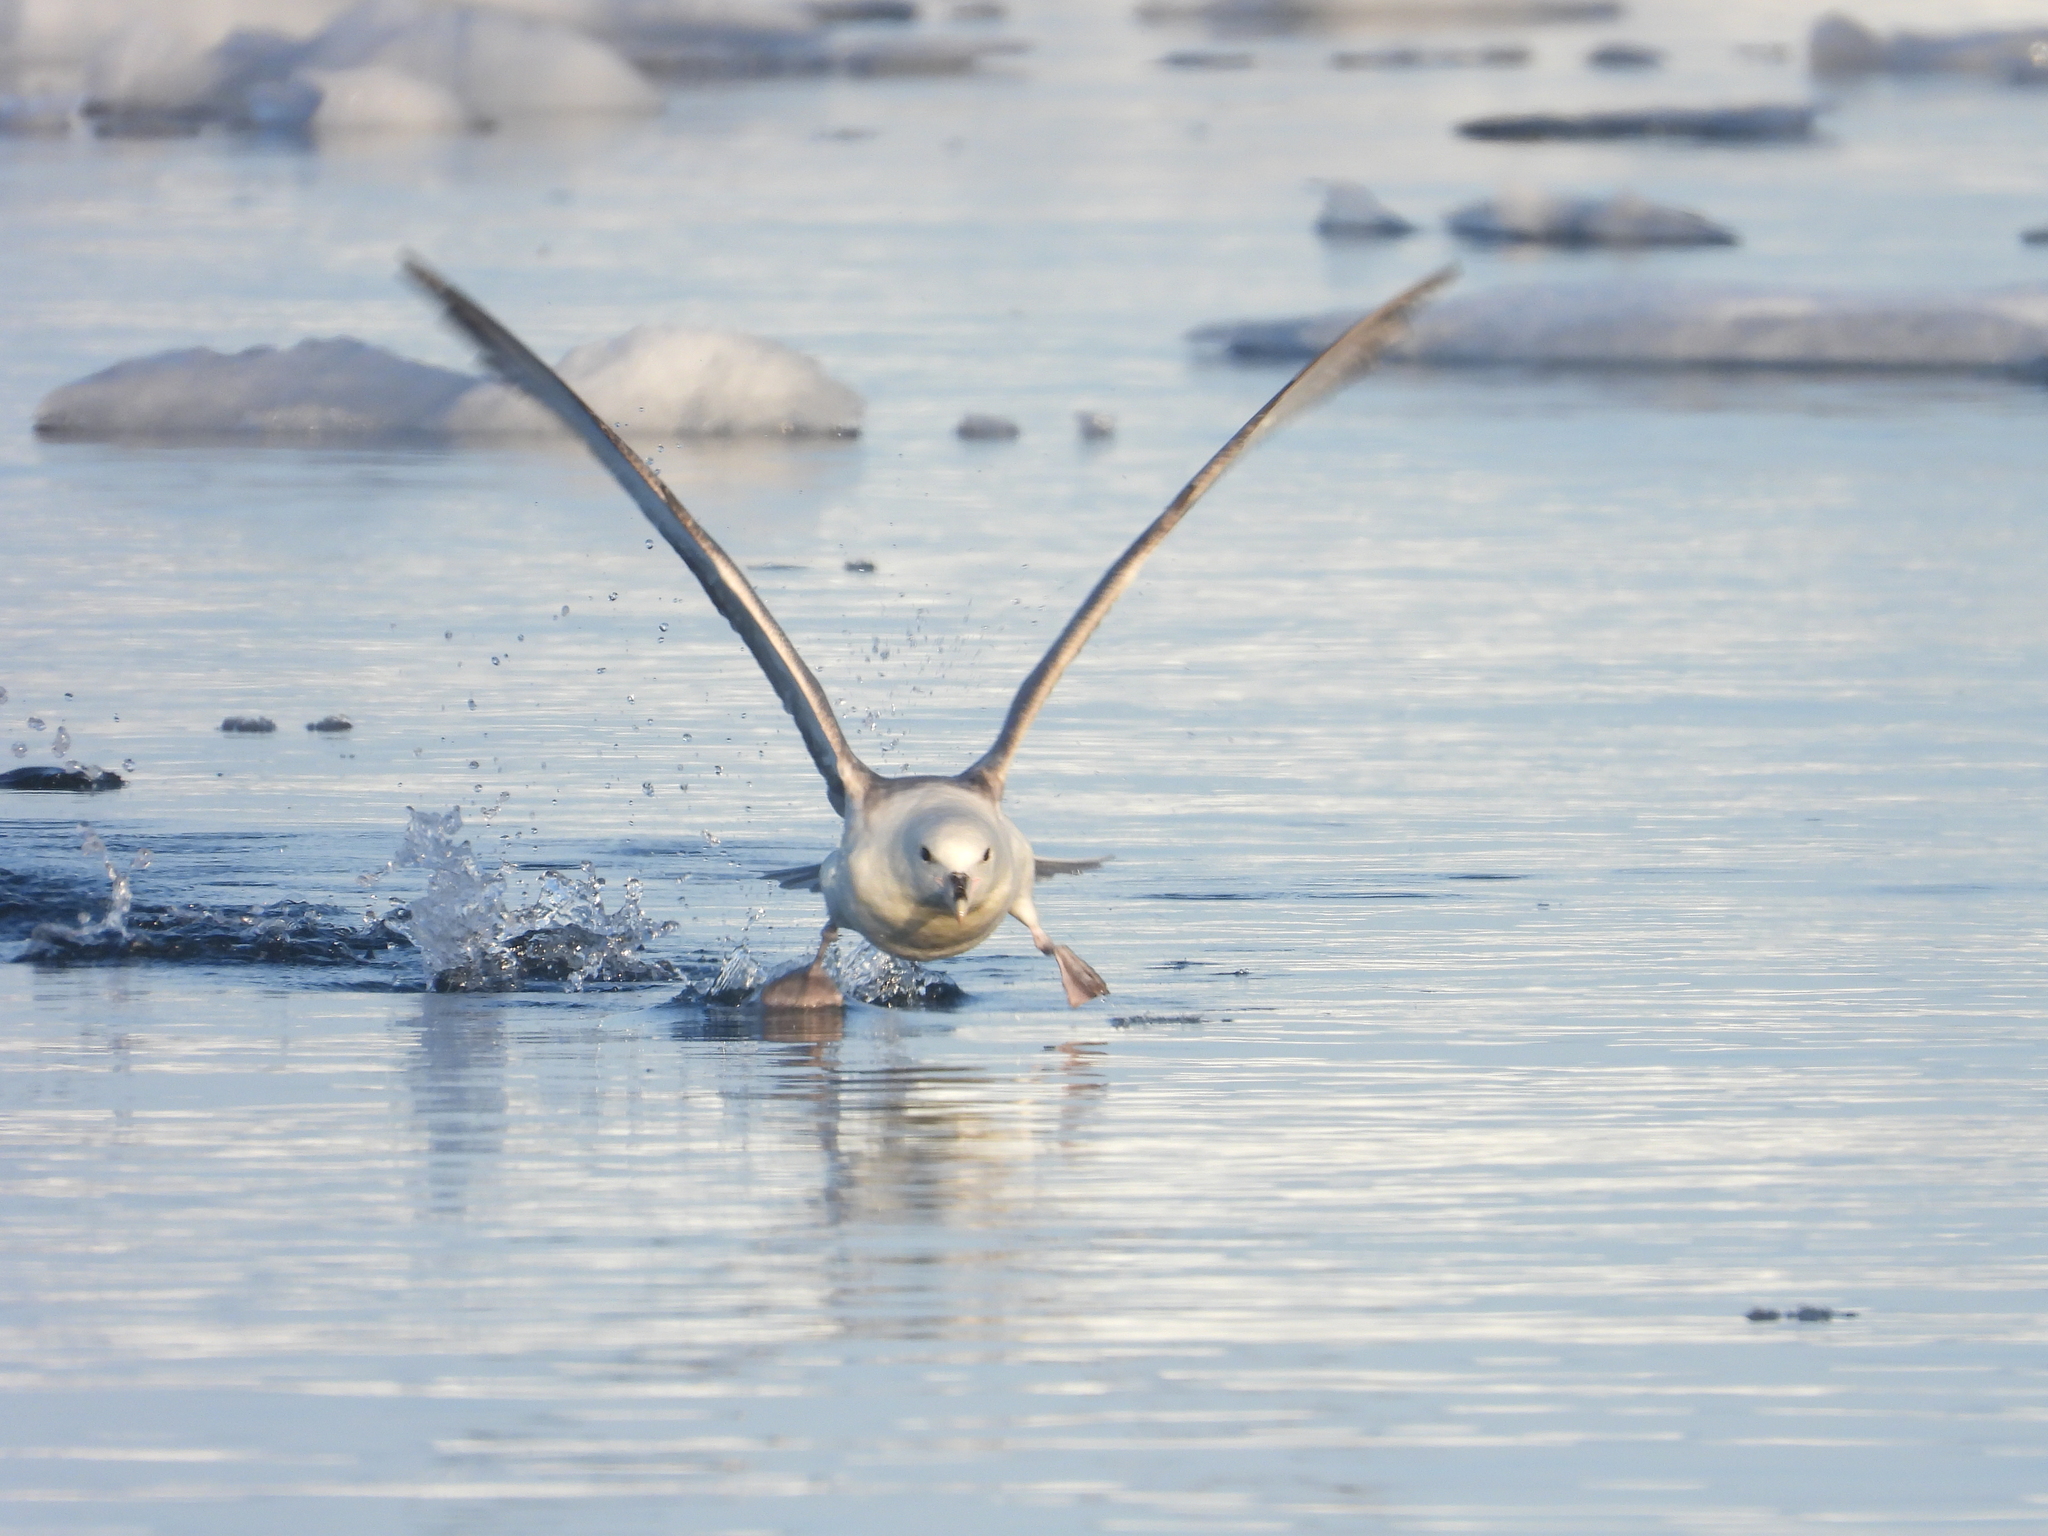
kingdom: Animalia
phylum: Chordata
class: Aves
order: Procellariiformes
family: Procellariidae
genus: Fulmarus
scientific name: Fulmarus glacialis
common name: Northern fulmar
